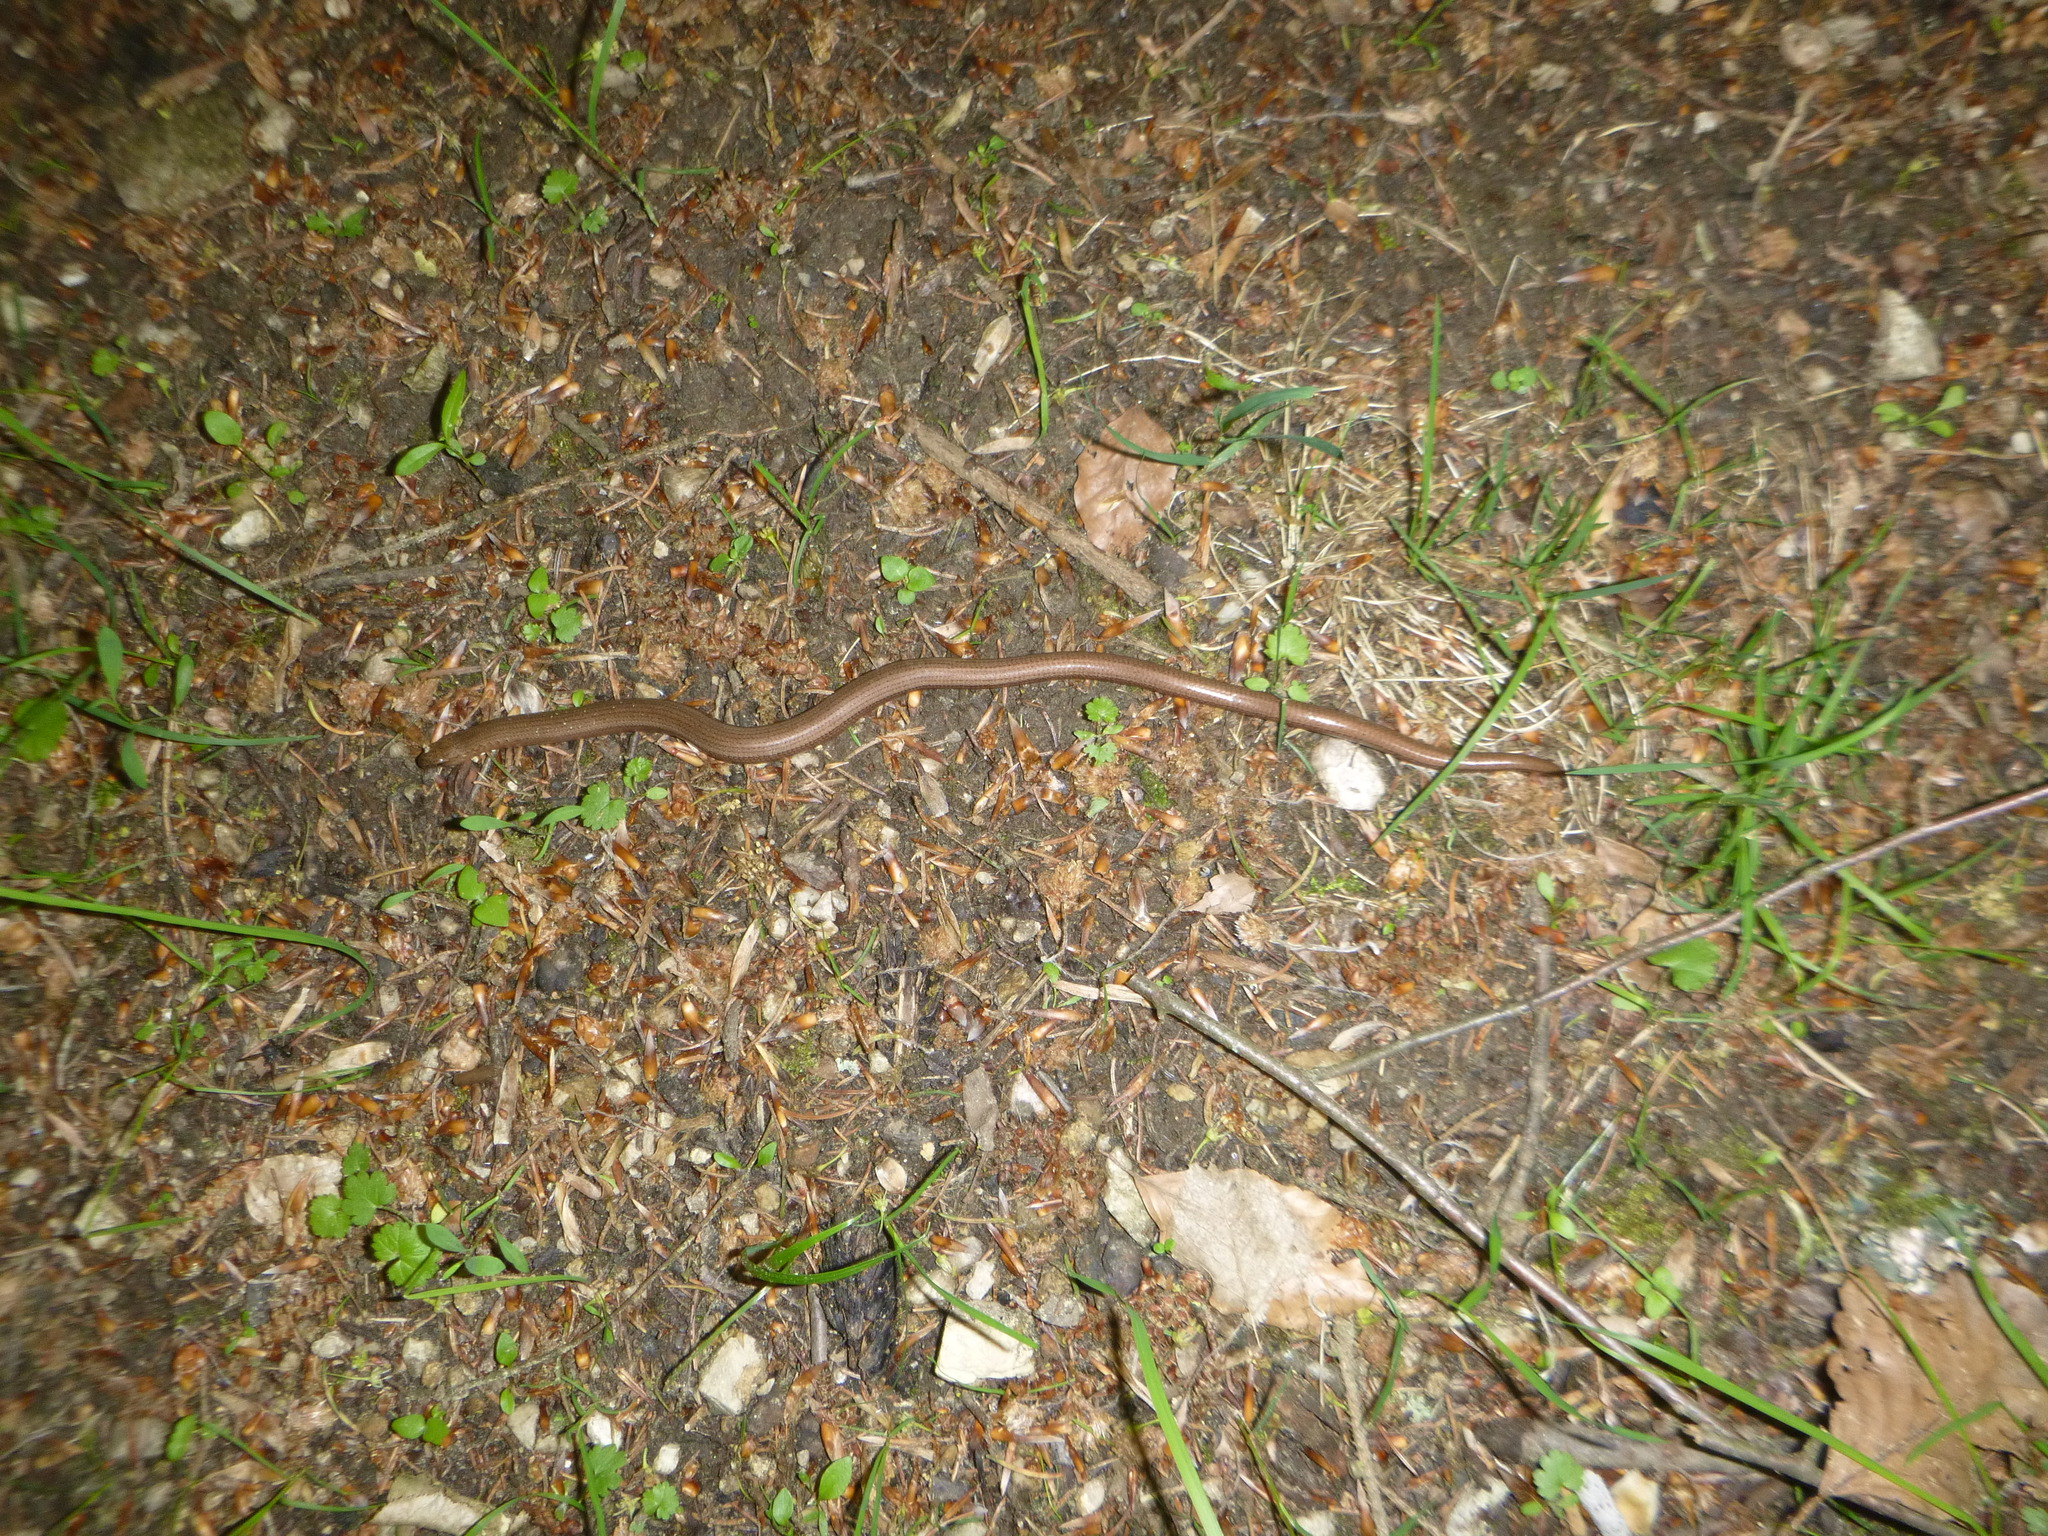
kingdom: Animalia
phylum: Chordata
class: Squamata
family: Anguidae
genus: Anguis
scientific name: Anguis fragilis
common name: Slow worm
